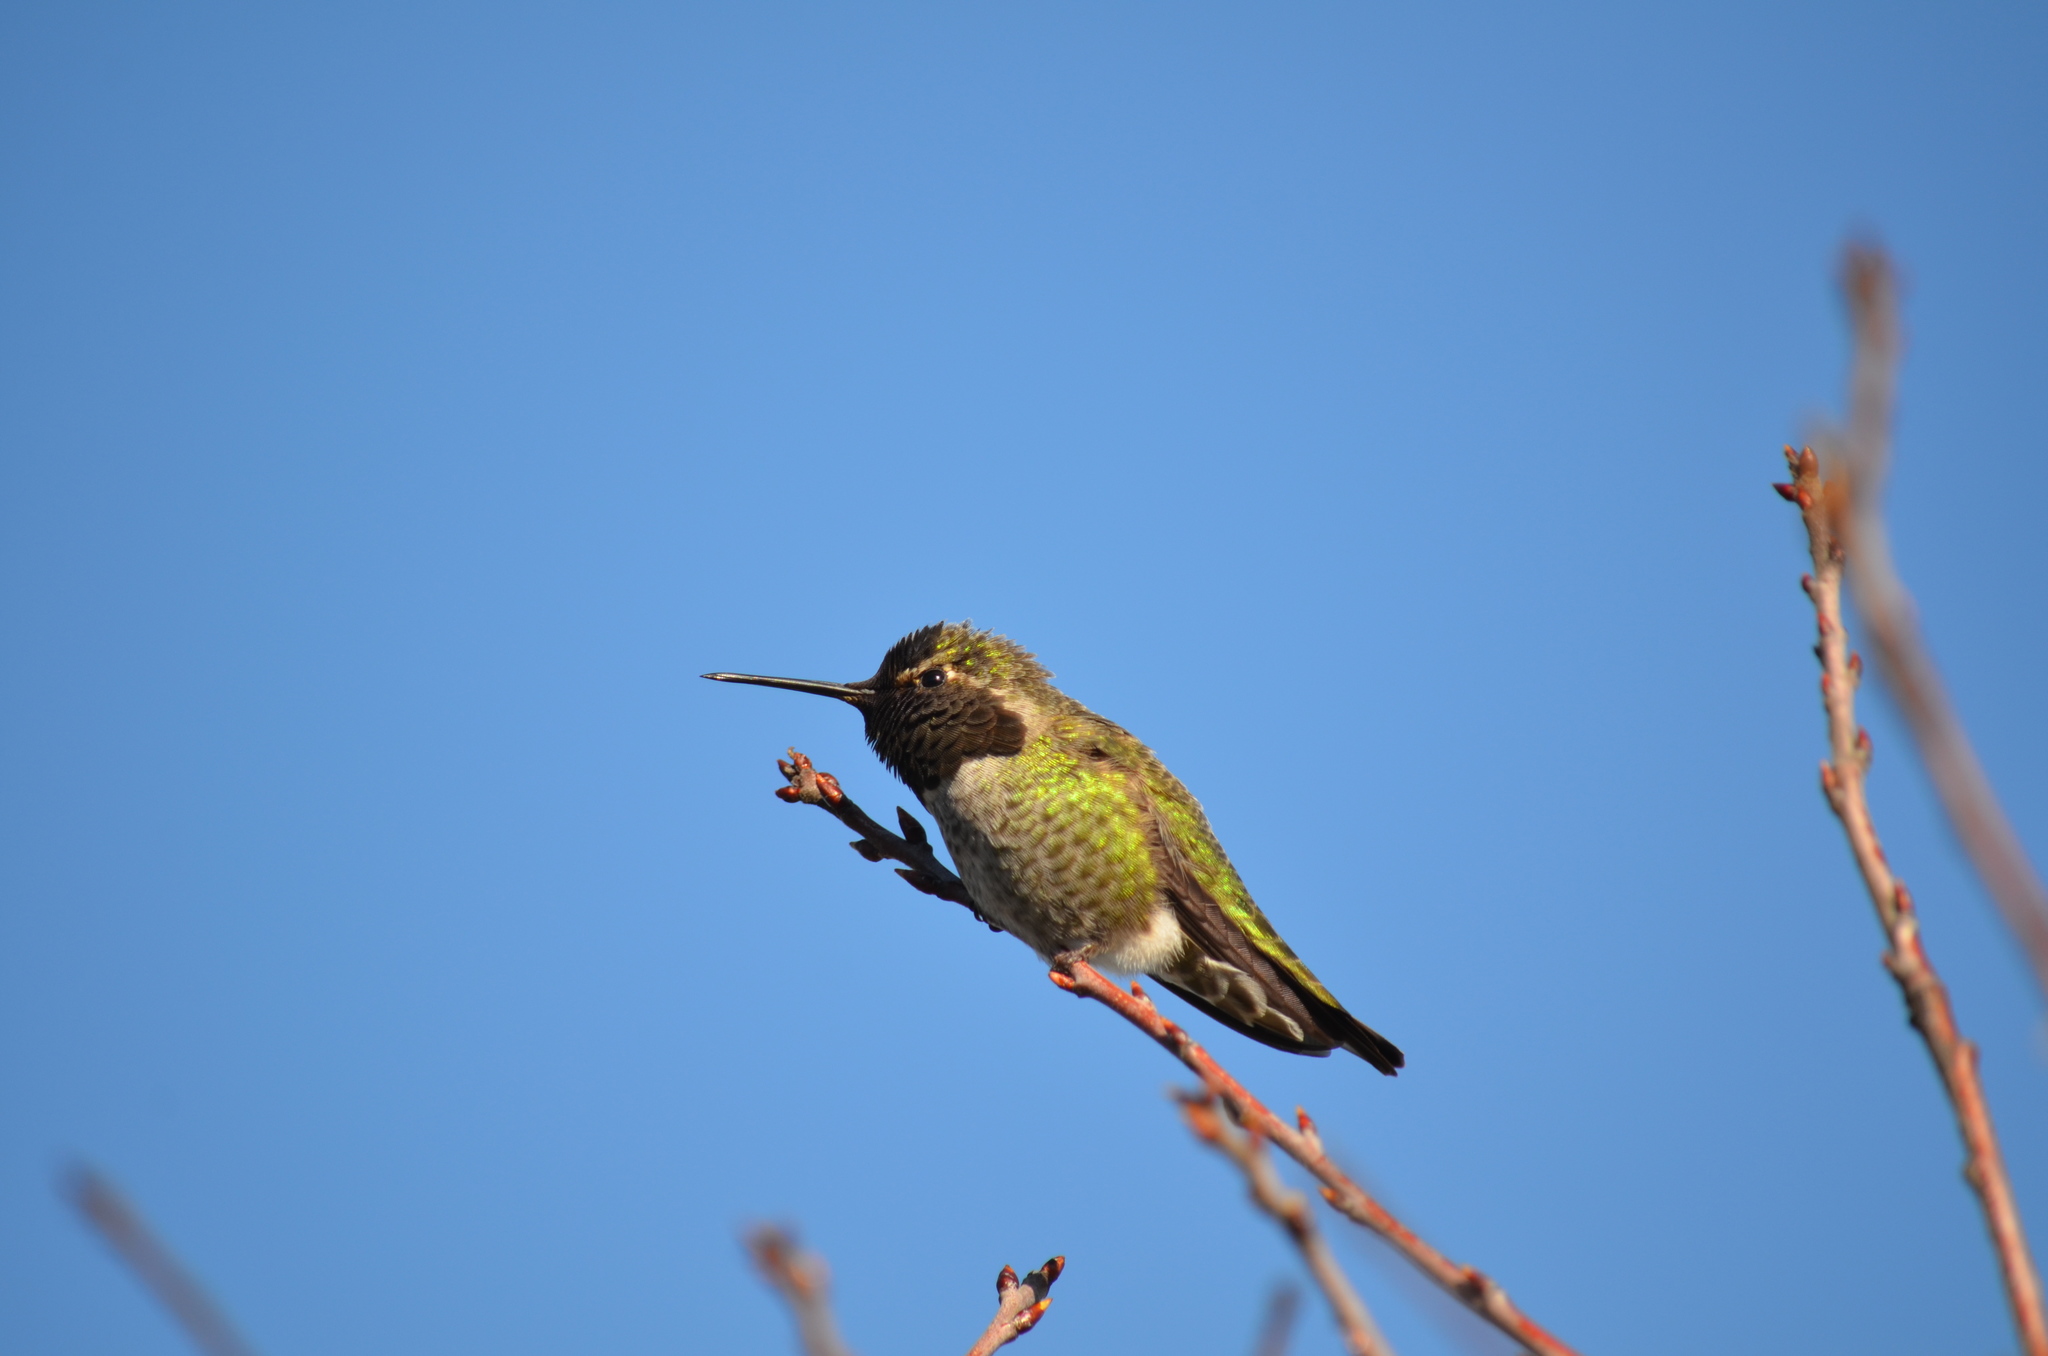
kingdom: Animalia
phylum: Chordata
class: Aves
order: Apodiformes
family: Trochilidae
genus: Calypte
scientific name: Calypte anna
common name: Anna's hummingbird
